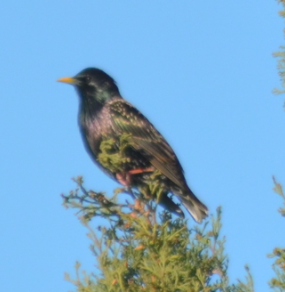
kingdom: Animalia
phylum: Chordata
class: Aves
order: Passeriformes
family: Sturnidae
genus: Sturnus
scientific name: Sturnus vulgaris
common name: Common starling
